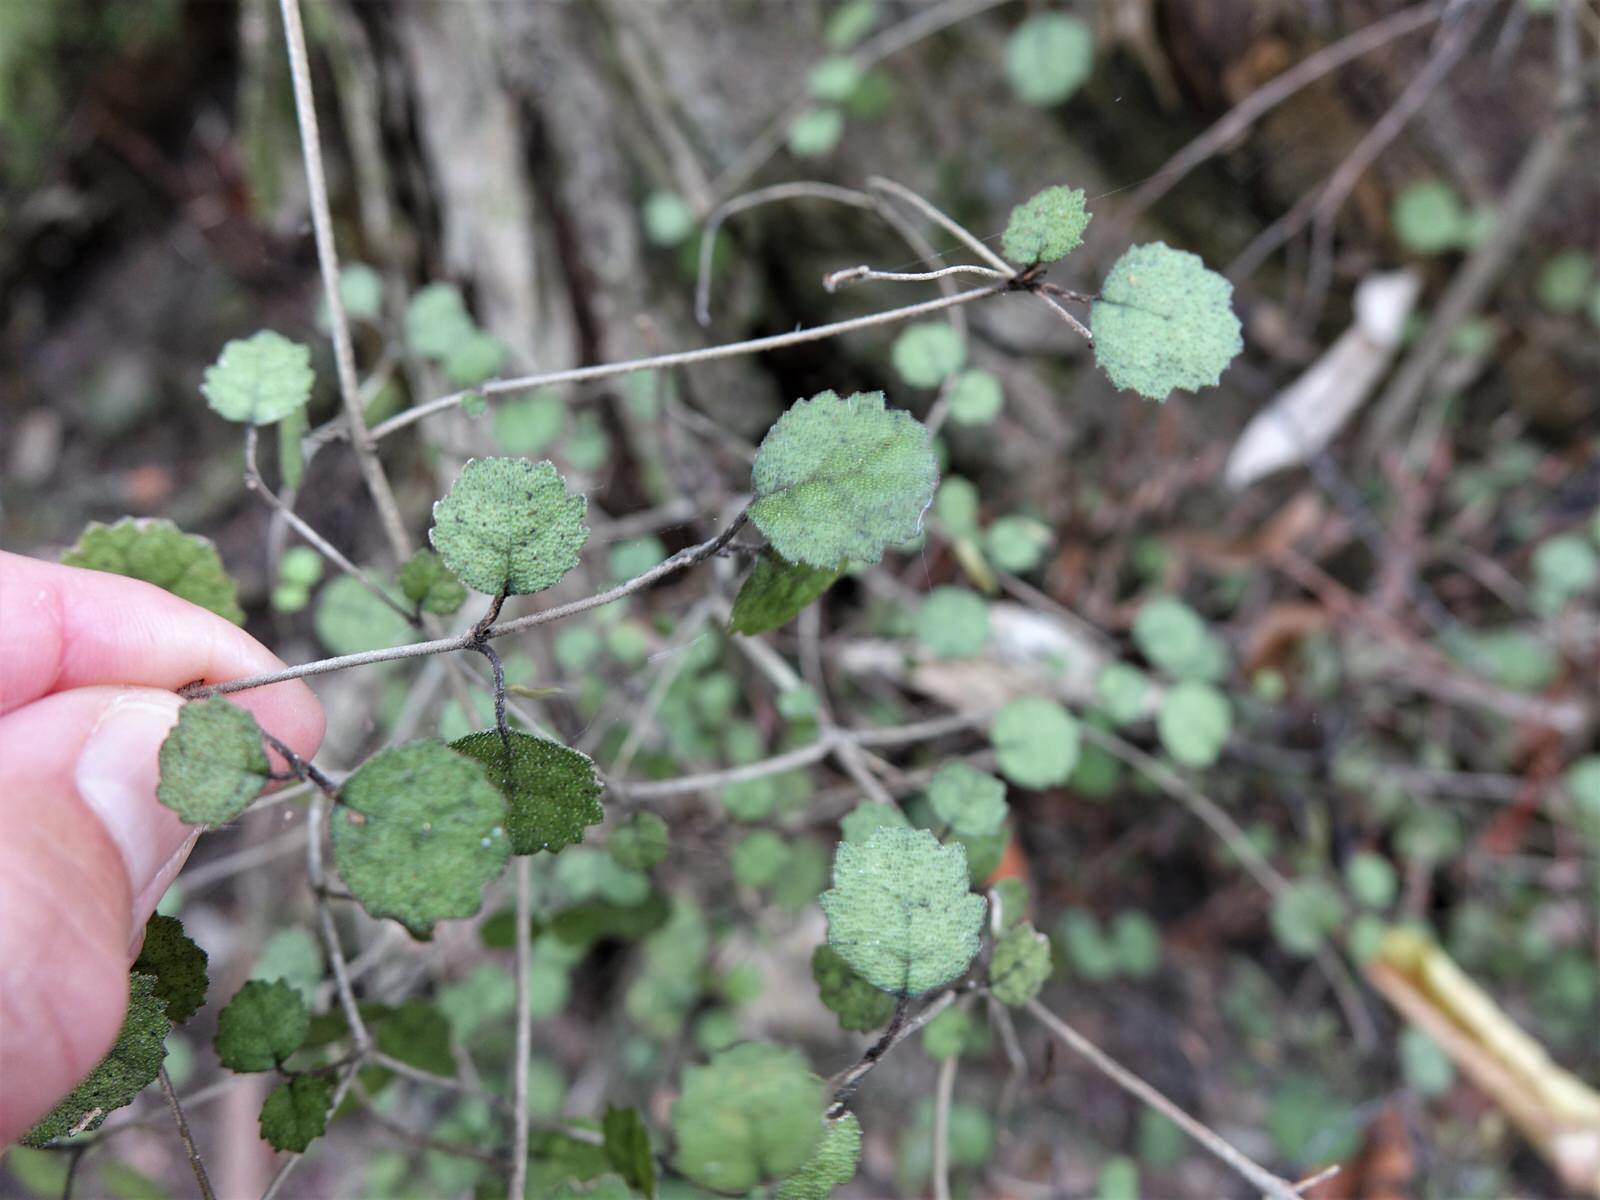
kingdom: Plantae
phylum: Tracheophyta
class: Magnoliopsida
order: Lamiales
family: Gesneriaceae
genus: Rhabdothamnus
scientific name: Rhabdothamnus solandri
